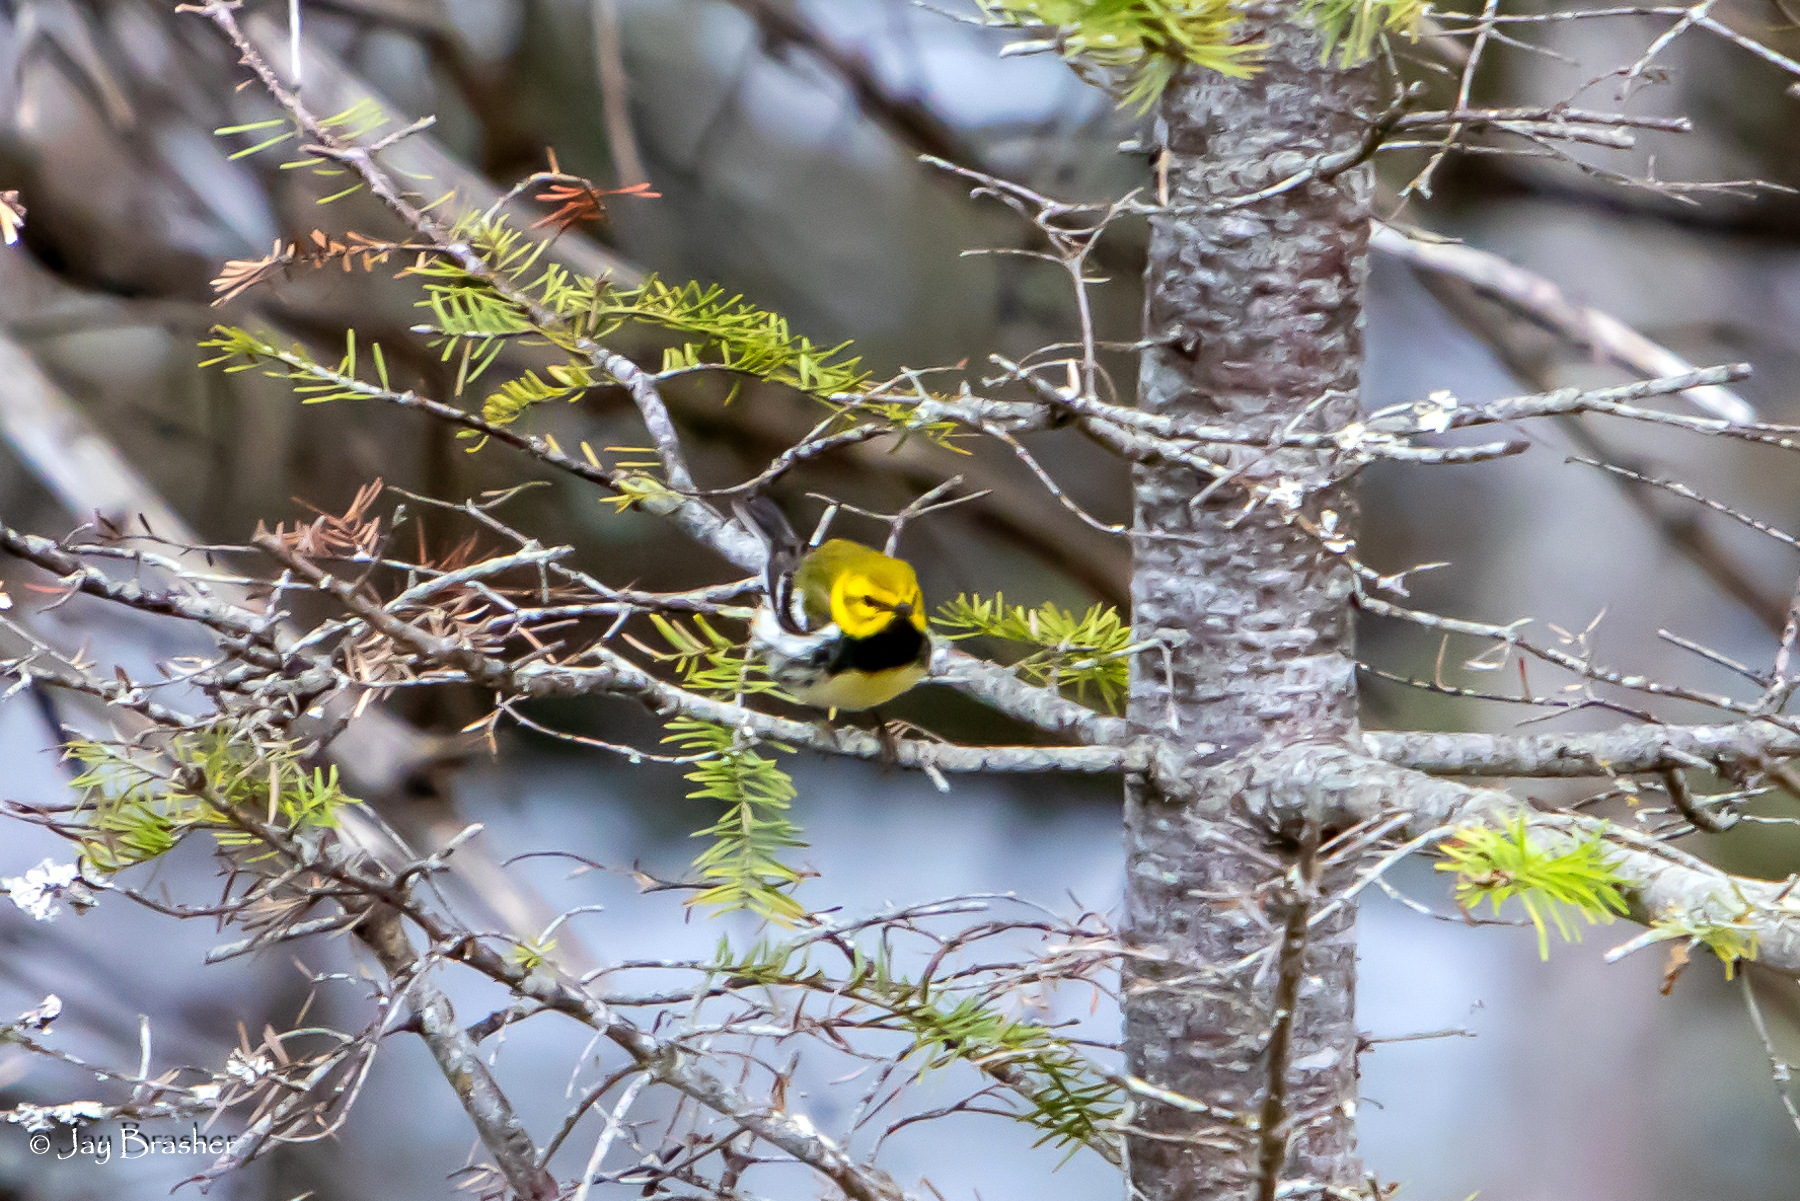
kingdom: Animalia
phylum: Chordata
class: Aves
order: Passeriformes
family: Parulidae
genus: Setophaga
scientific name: Setophaga virens
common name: Black-throated green warbler
